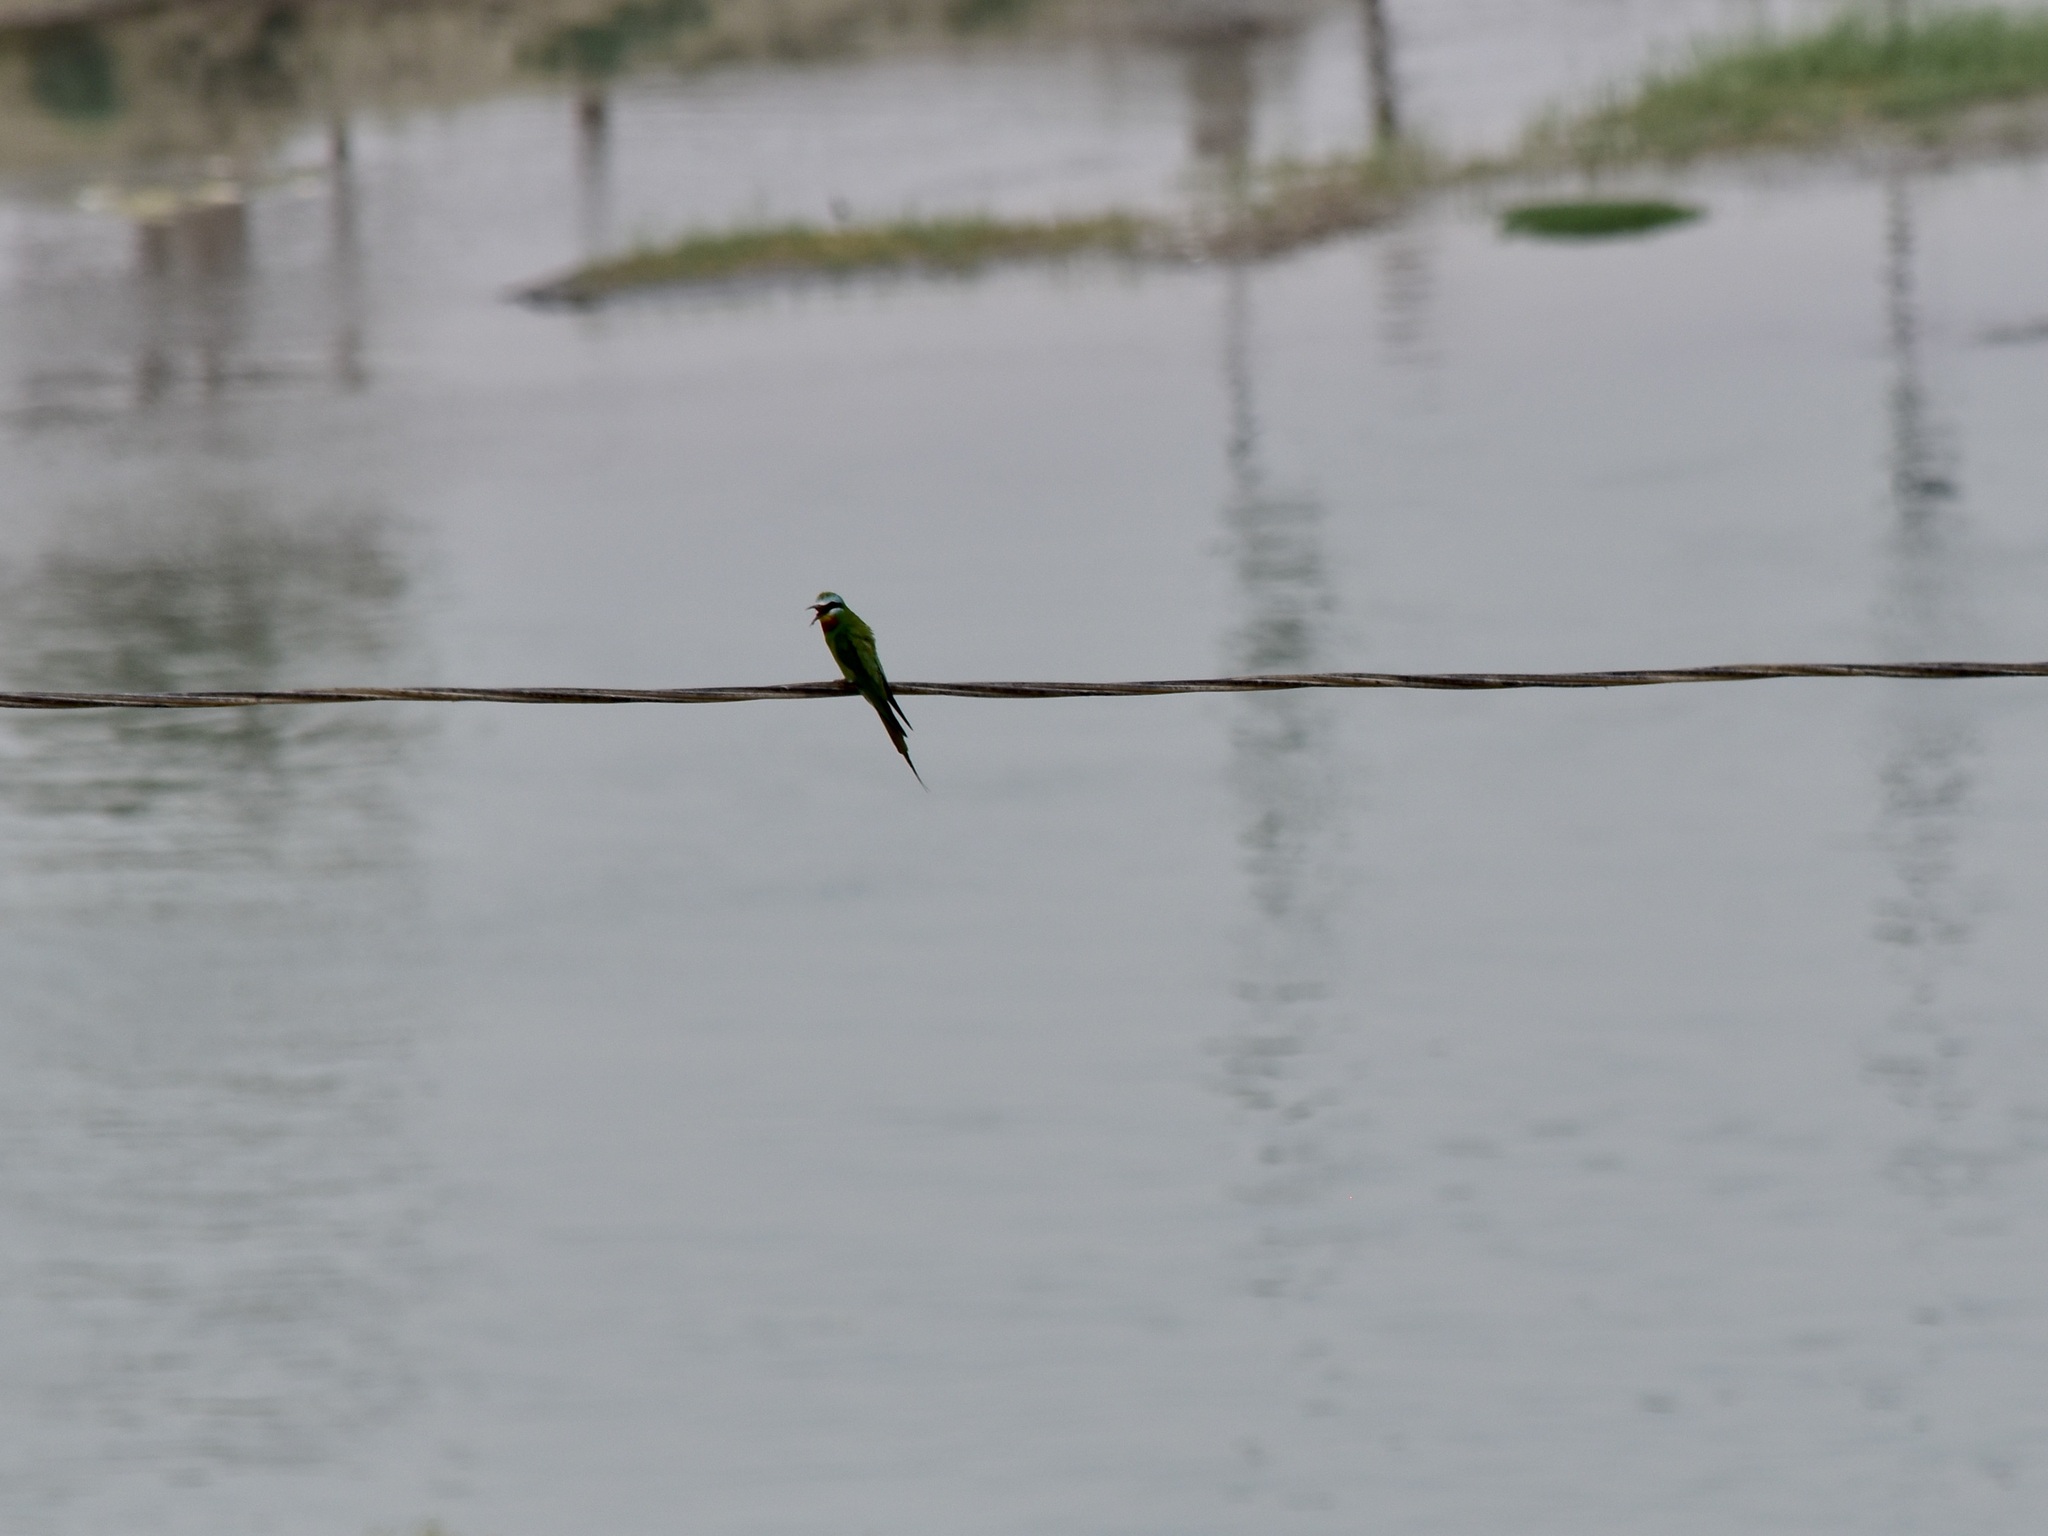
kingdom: Animalia
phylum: Chordata
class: Aves
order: Coraciiformes
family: Meropidae
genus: Merops
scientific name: Merops persicus
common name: Blue-cheeked bee-eater
